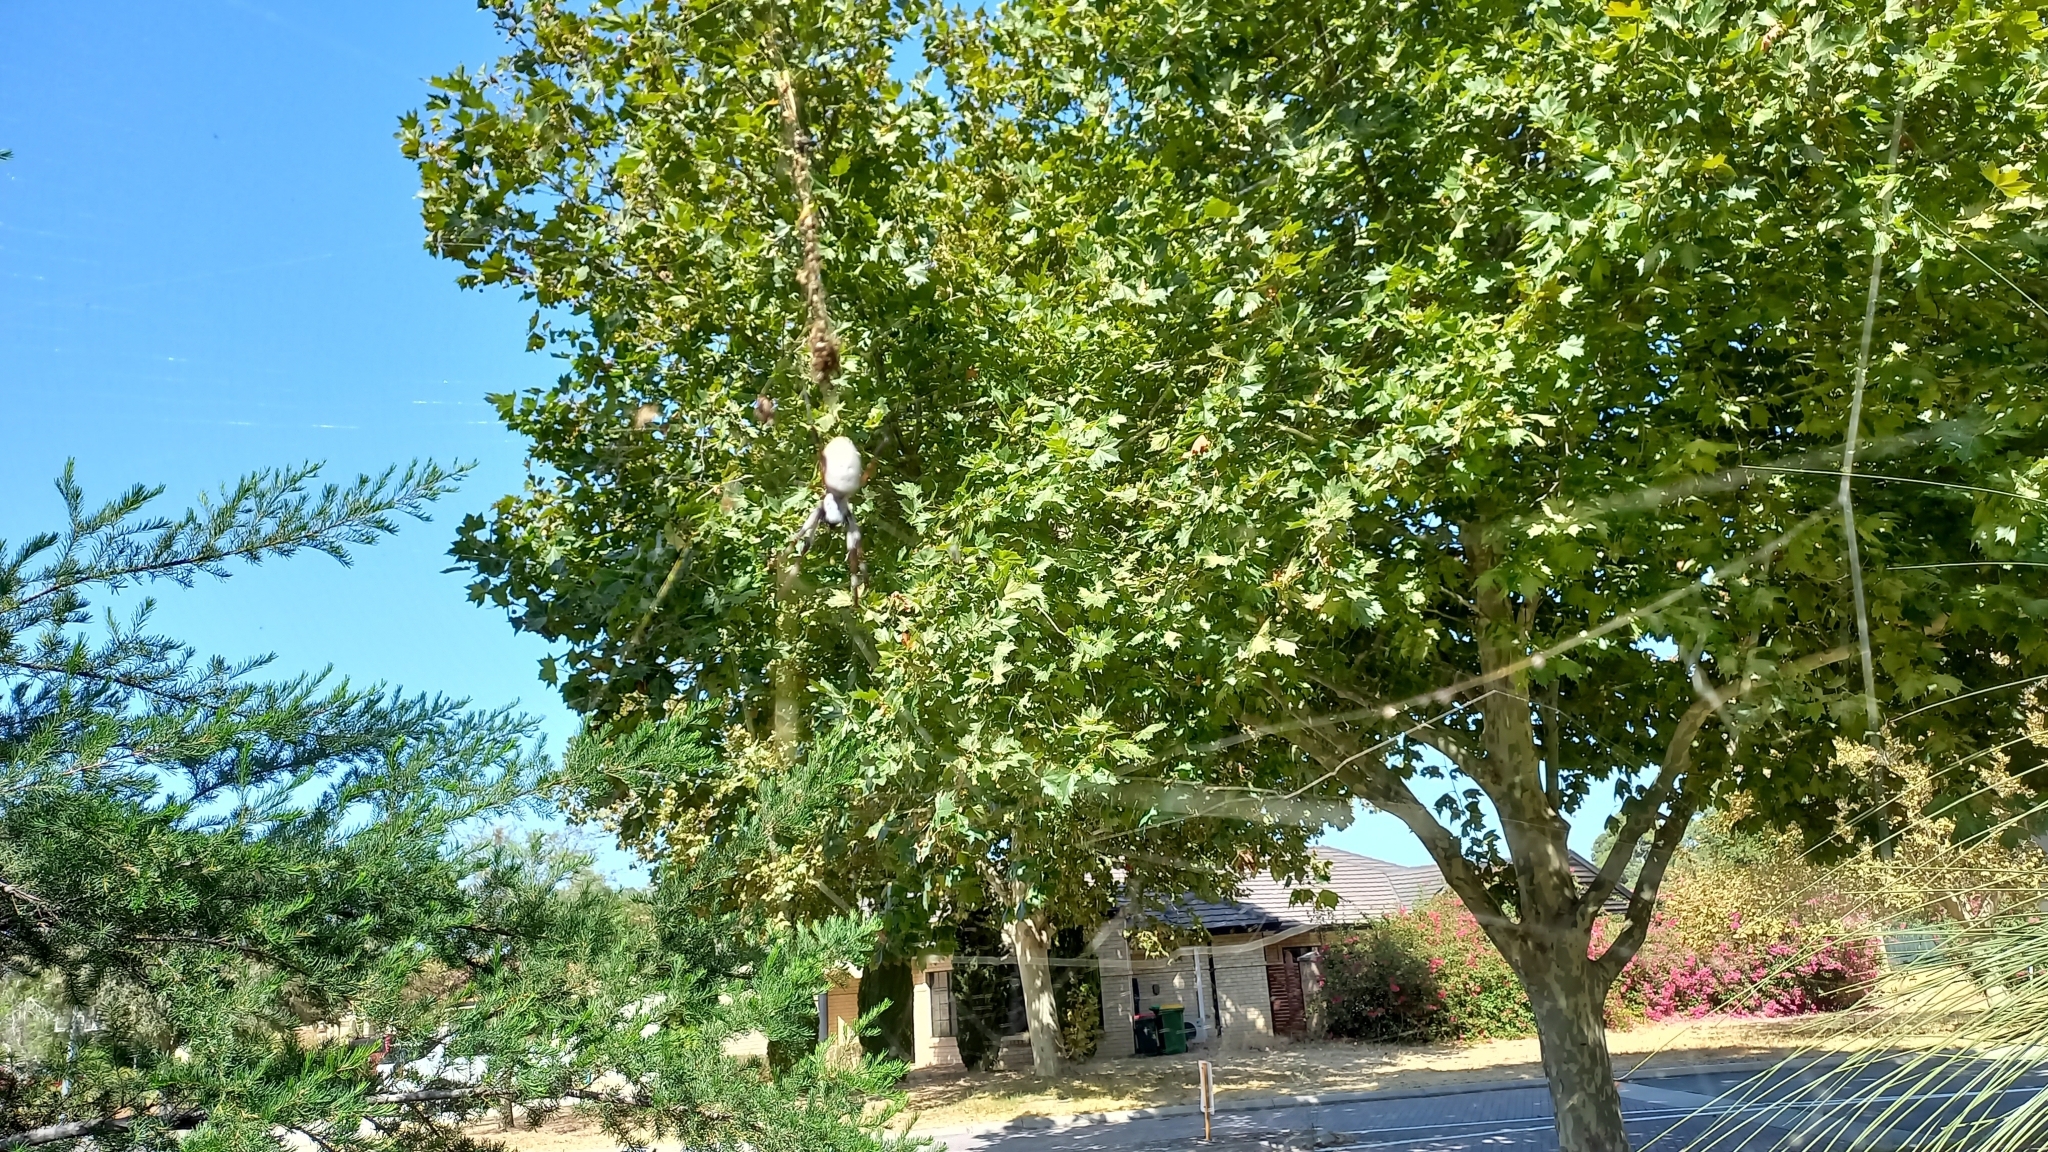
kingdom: Animalia
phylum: Arthropoda
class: Arachnida
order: Araneae
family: Araneidae
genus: Trichonephila
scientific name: Trichonephila edulis
